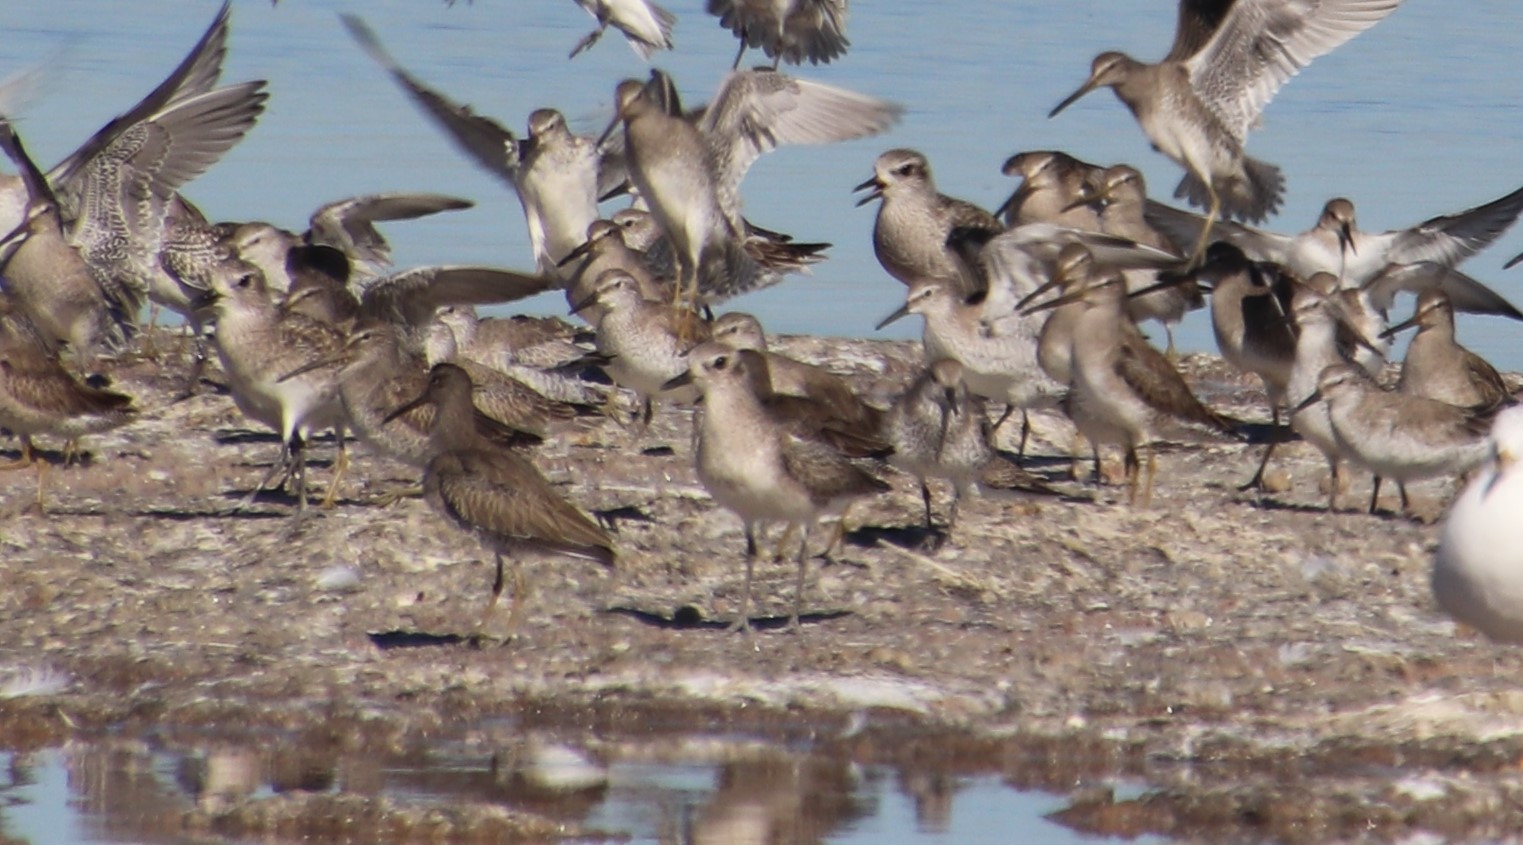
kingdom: Animalia
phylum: Chordata
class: Aves
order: Charadriiformes
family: Charadriidae
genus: Pluvialis
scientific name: Pluvialis squatarola
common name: Grey plover
